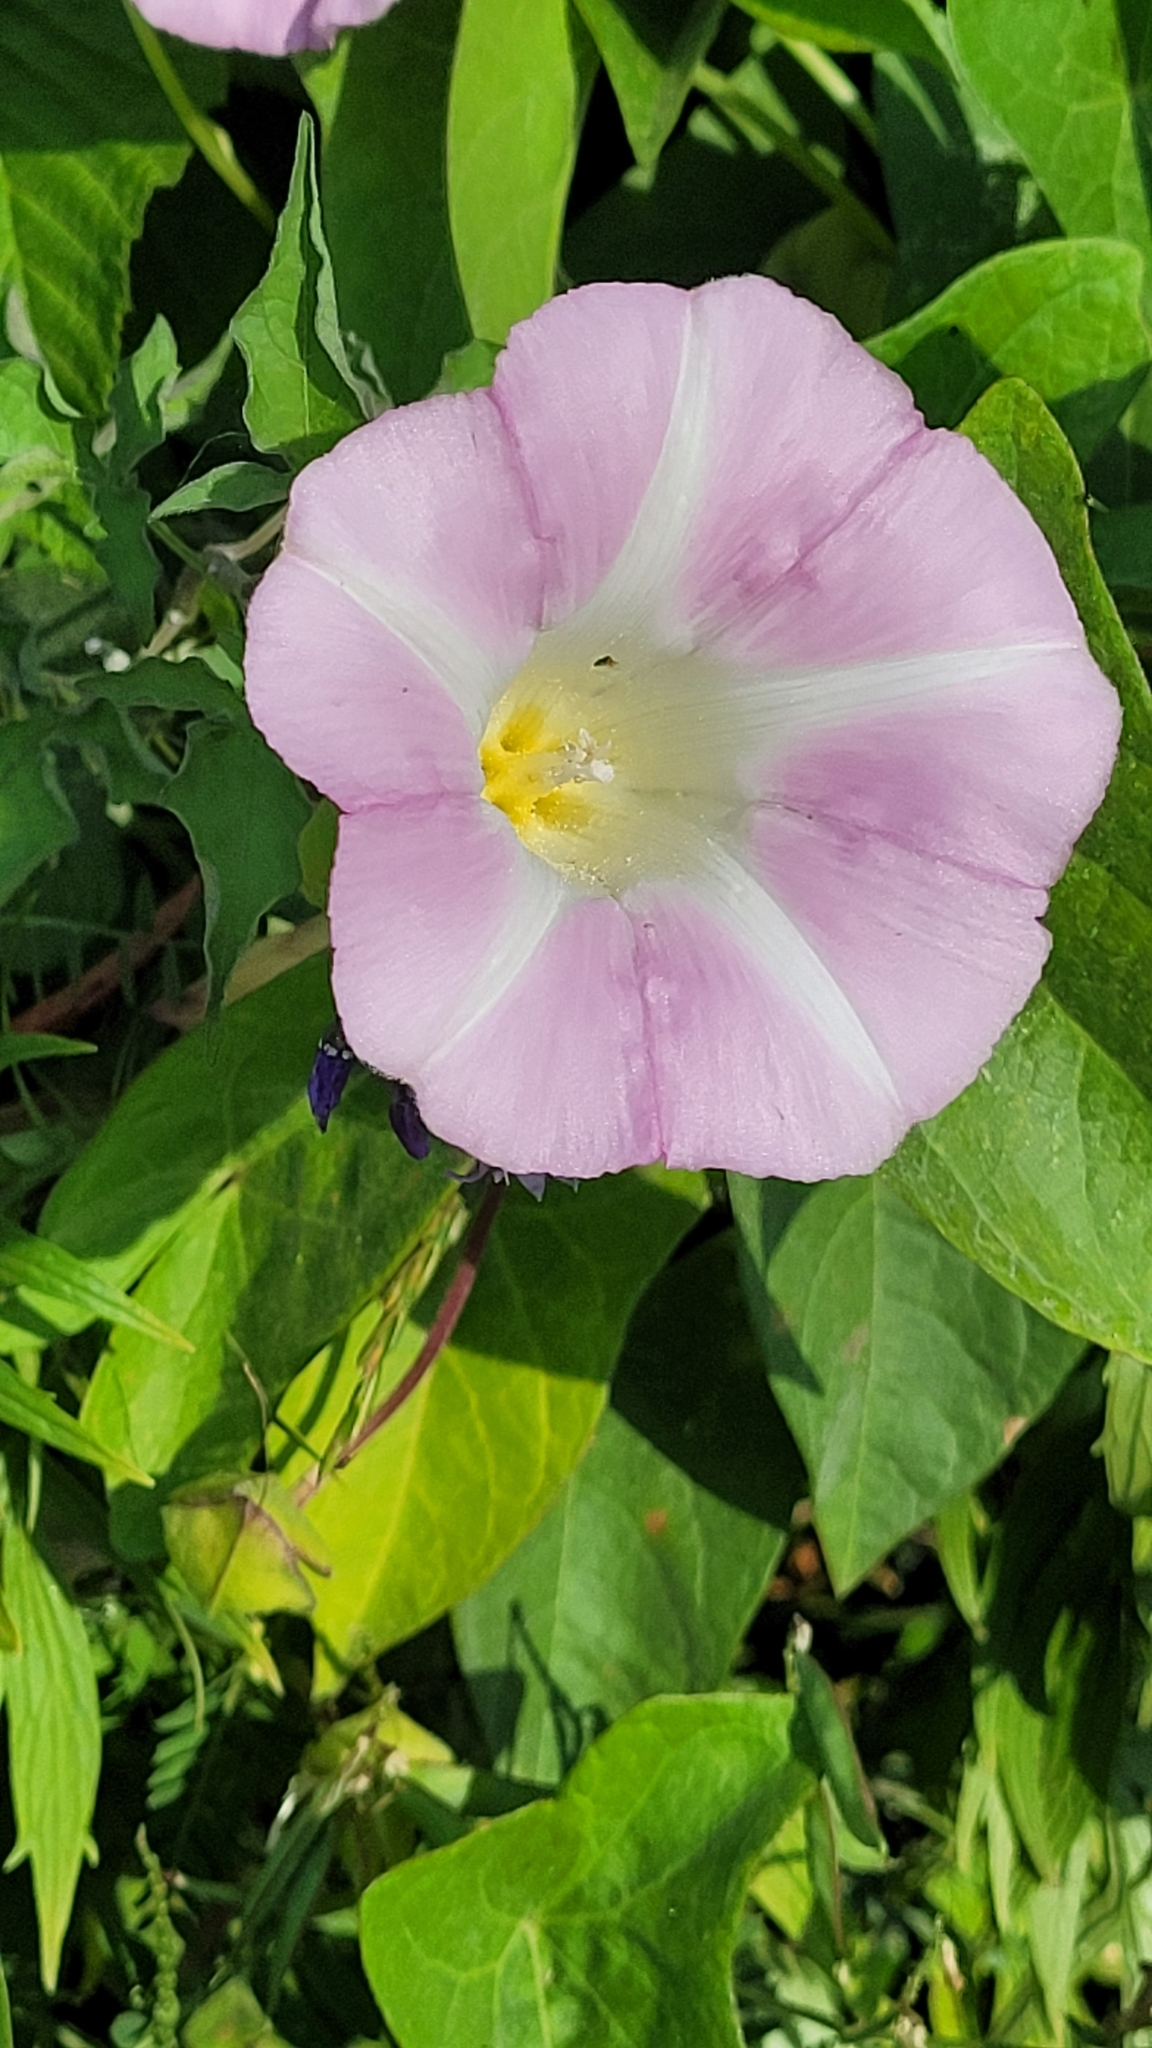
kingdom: Plantae
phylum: Tracheophyta
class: Magnoliopsida
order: Solanales
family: Convolvulaceae
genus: Calystegia
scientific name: Calystegia sepium
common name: Hedge bindweed
